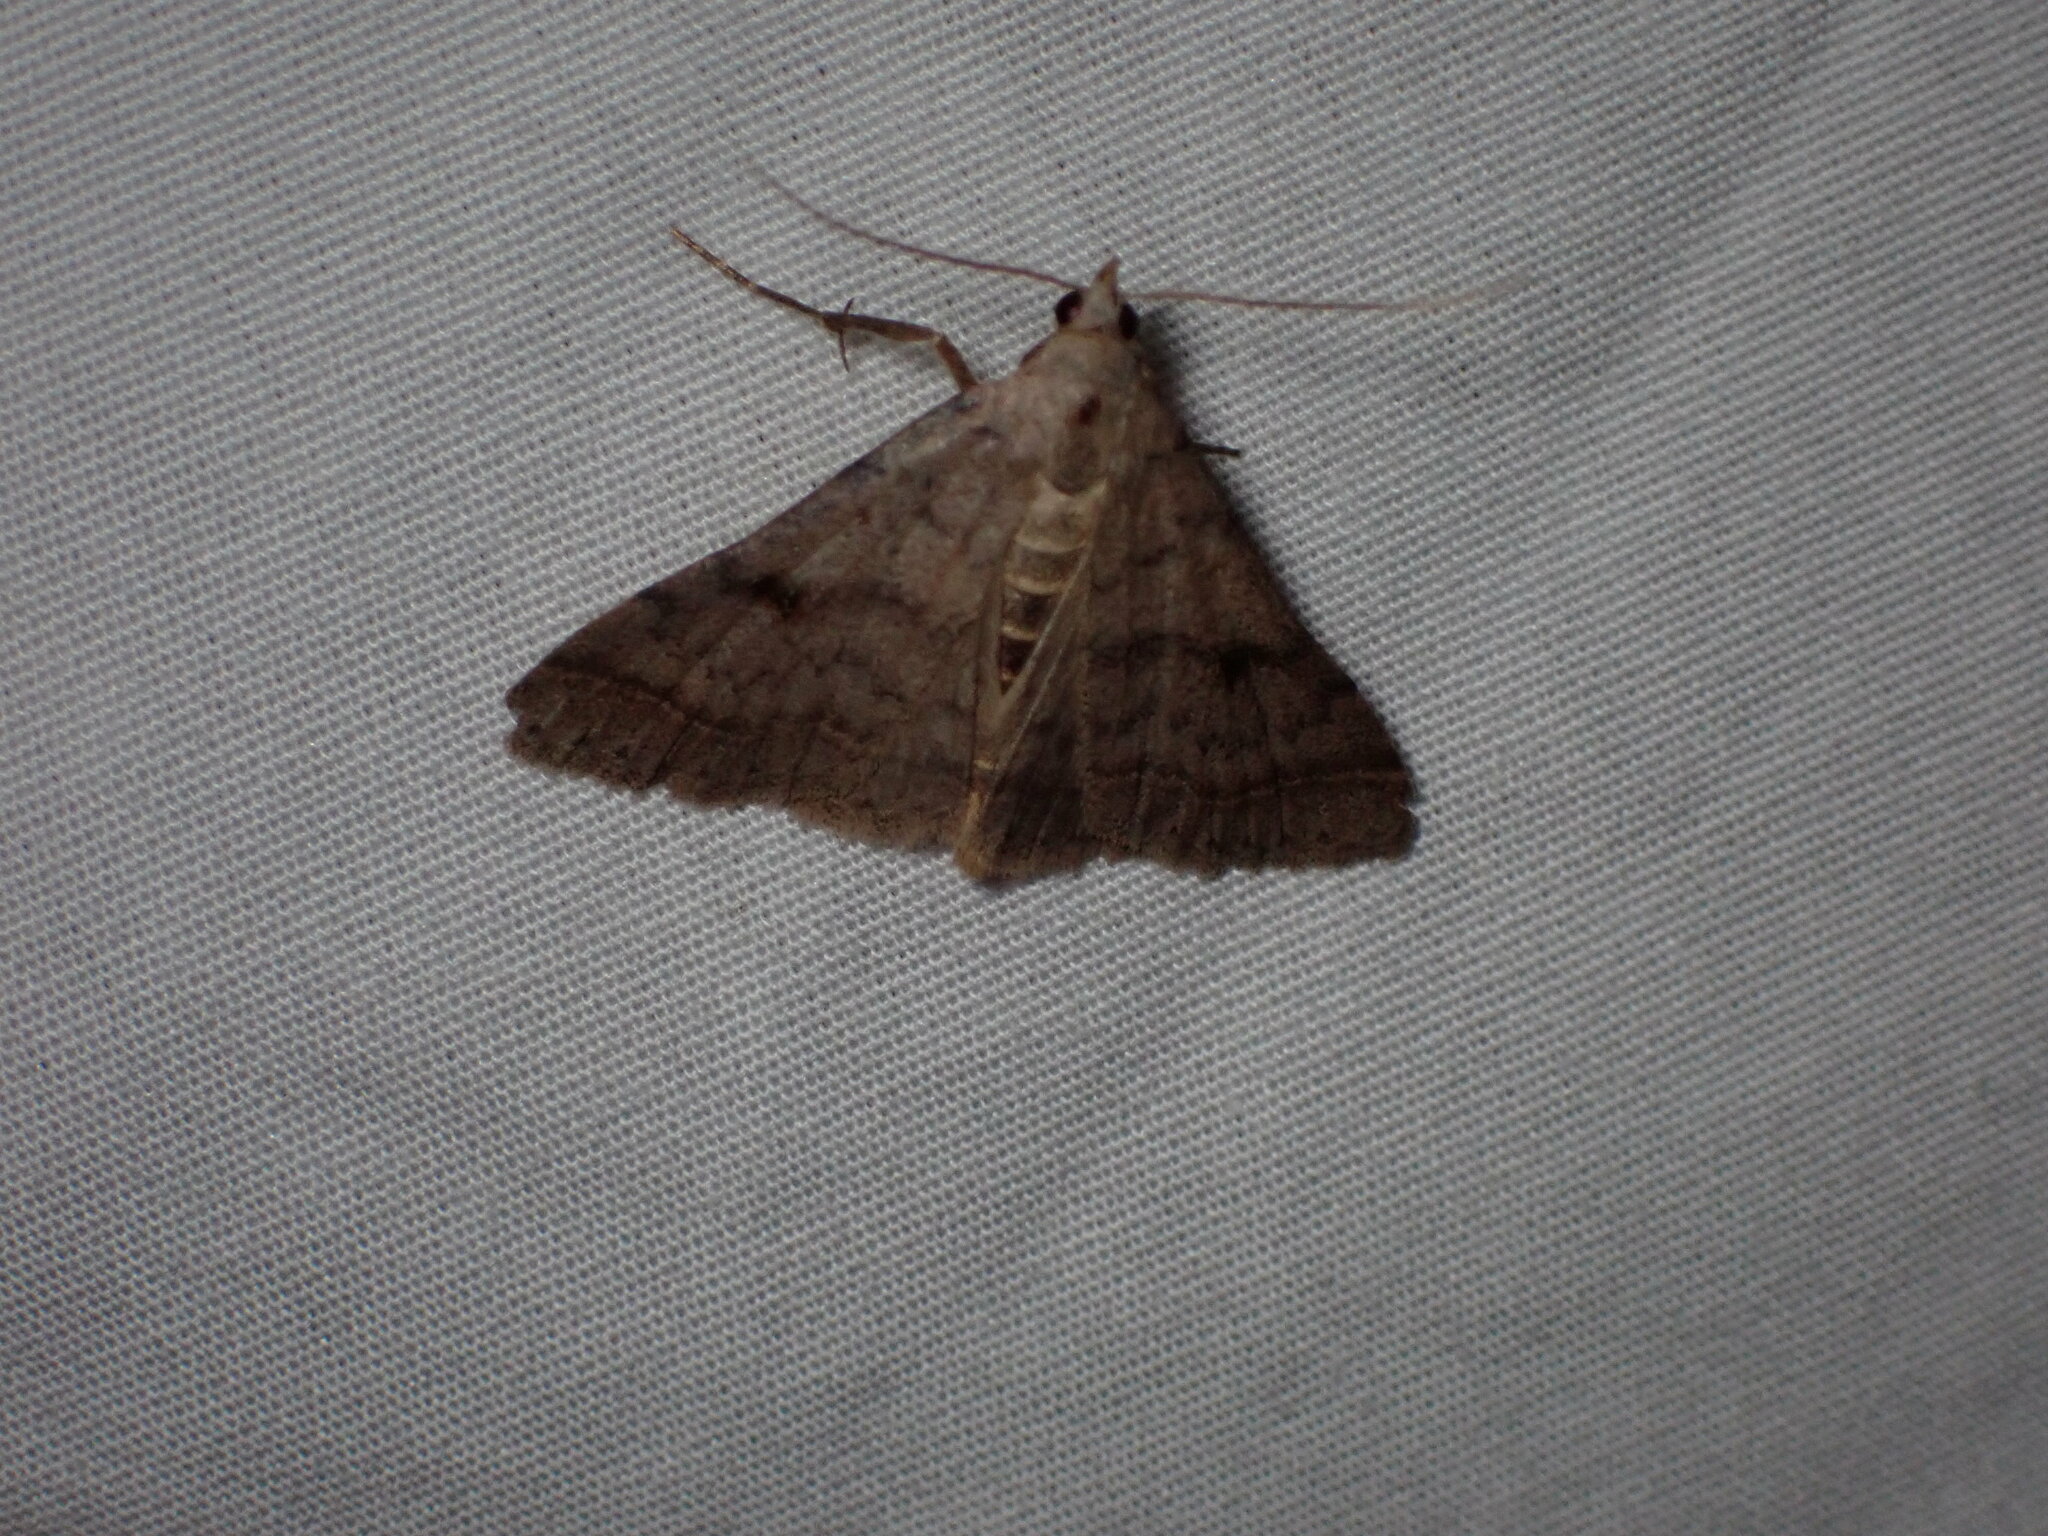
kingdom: Animalia
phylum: Arthropoda
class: Insecta
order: Lepidoptera
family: Erebidae
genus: Bleptina
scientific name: Bleptina caradrinalis
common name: Bent-winged owlet
